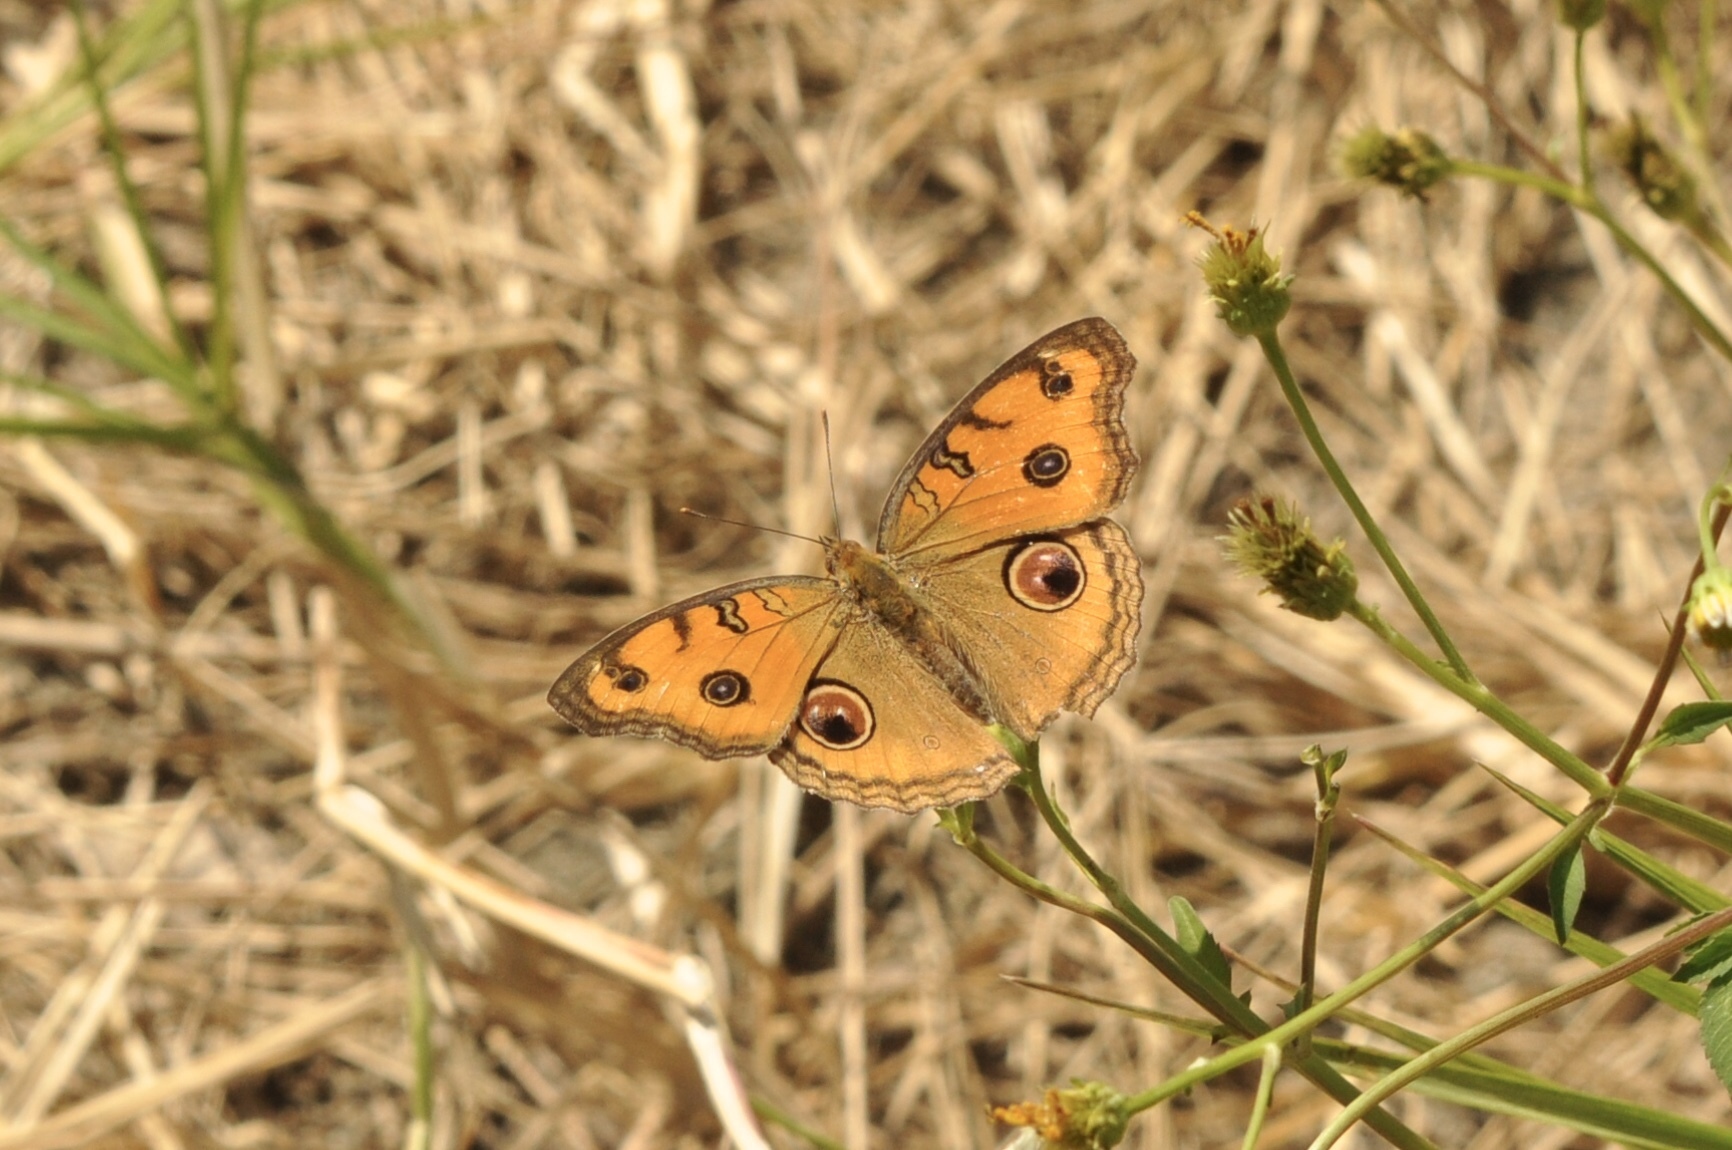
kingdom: Animalia
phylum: Arthropoda
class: Insecta
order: Lepidoptera
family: Nymphalidae
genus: Junonia
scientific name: Junonia almana
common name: Peacock pansy
